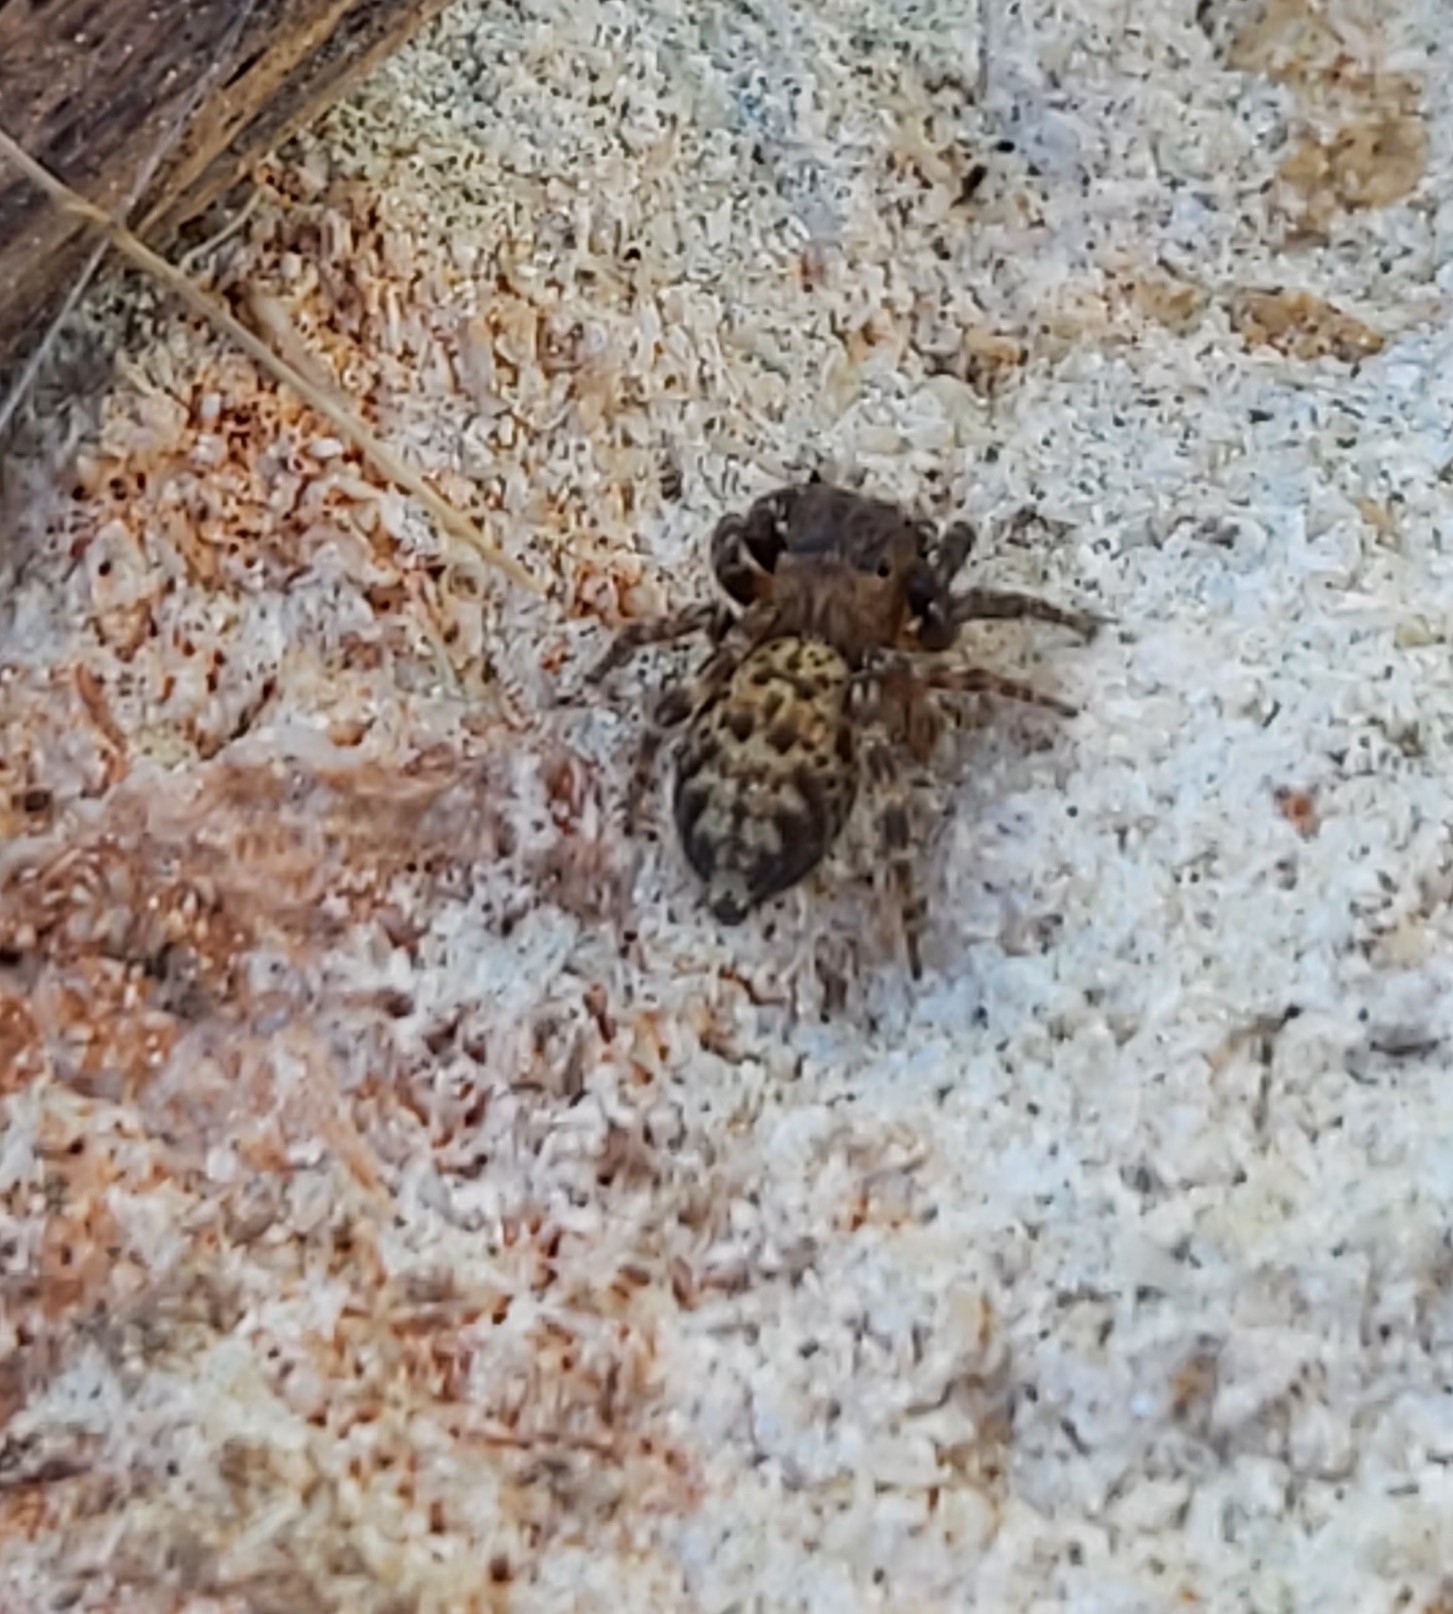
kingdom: Animalia
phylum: Arthropoda
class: Arachnida
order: Araneae
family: Salticidae
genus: Cyrba
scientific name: Cyrba algerina
